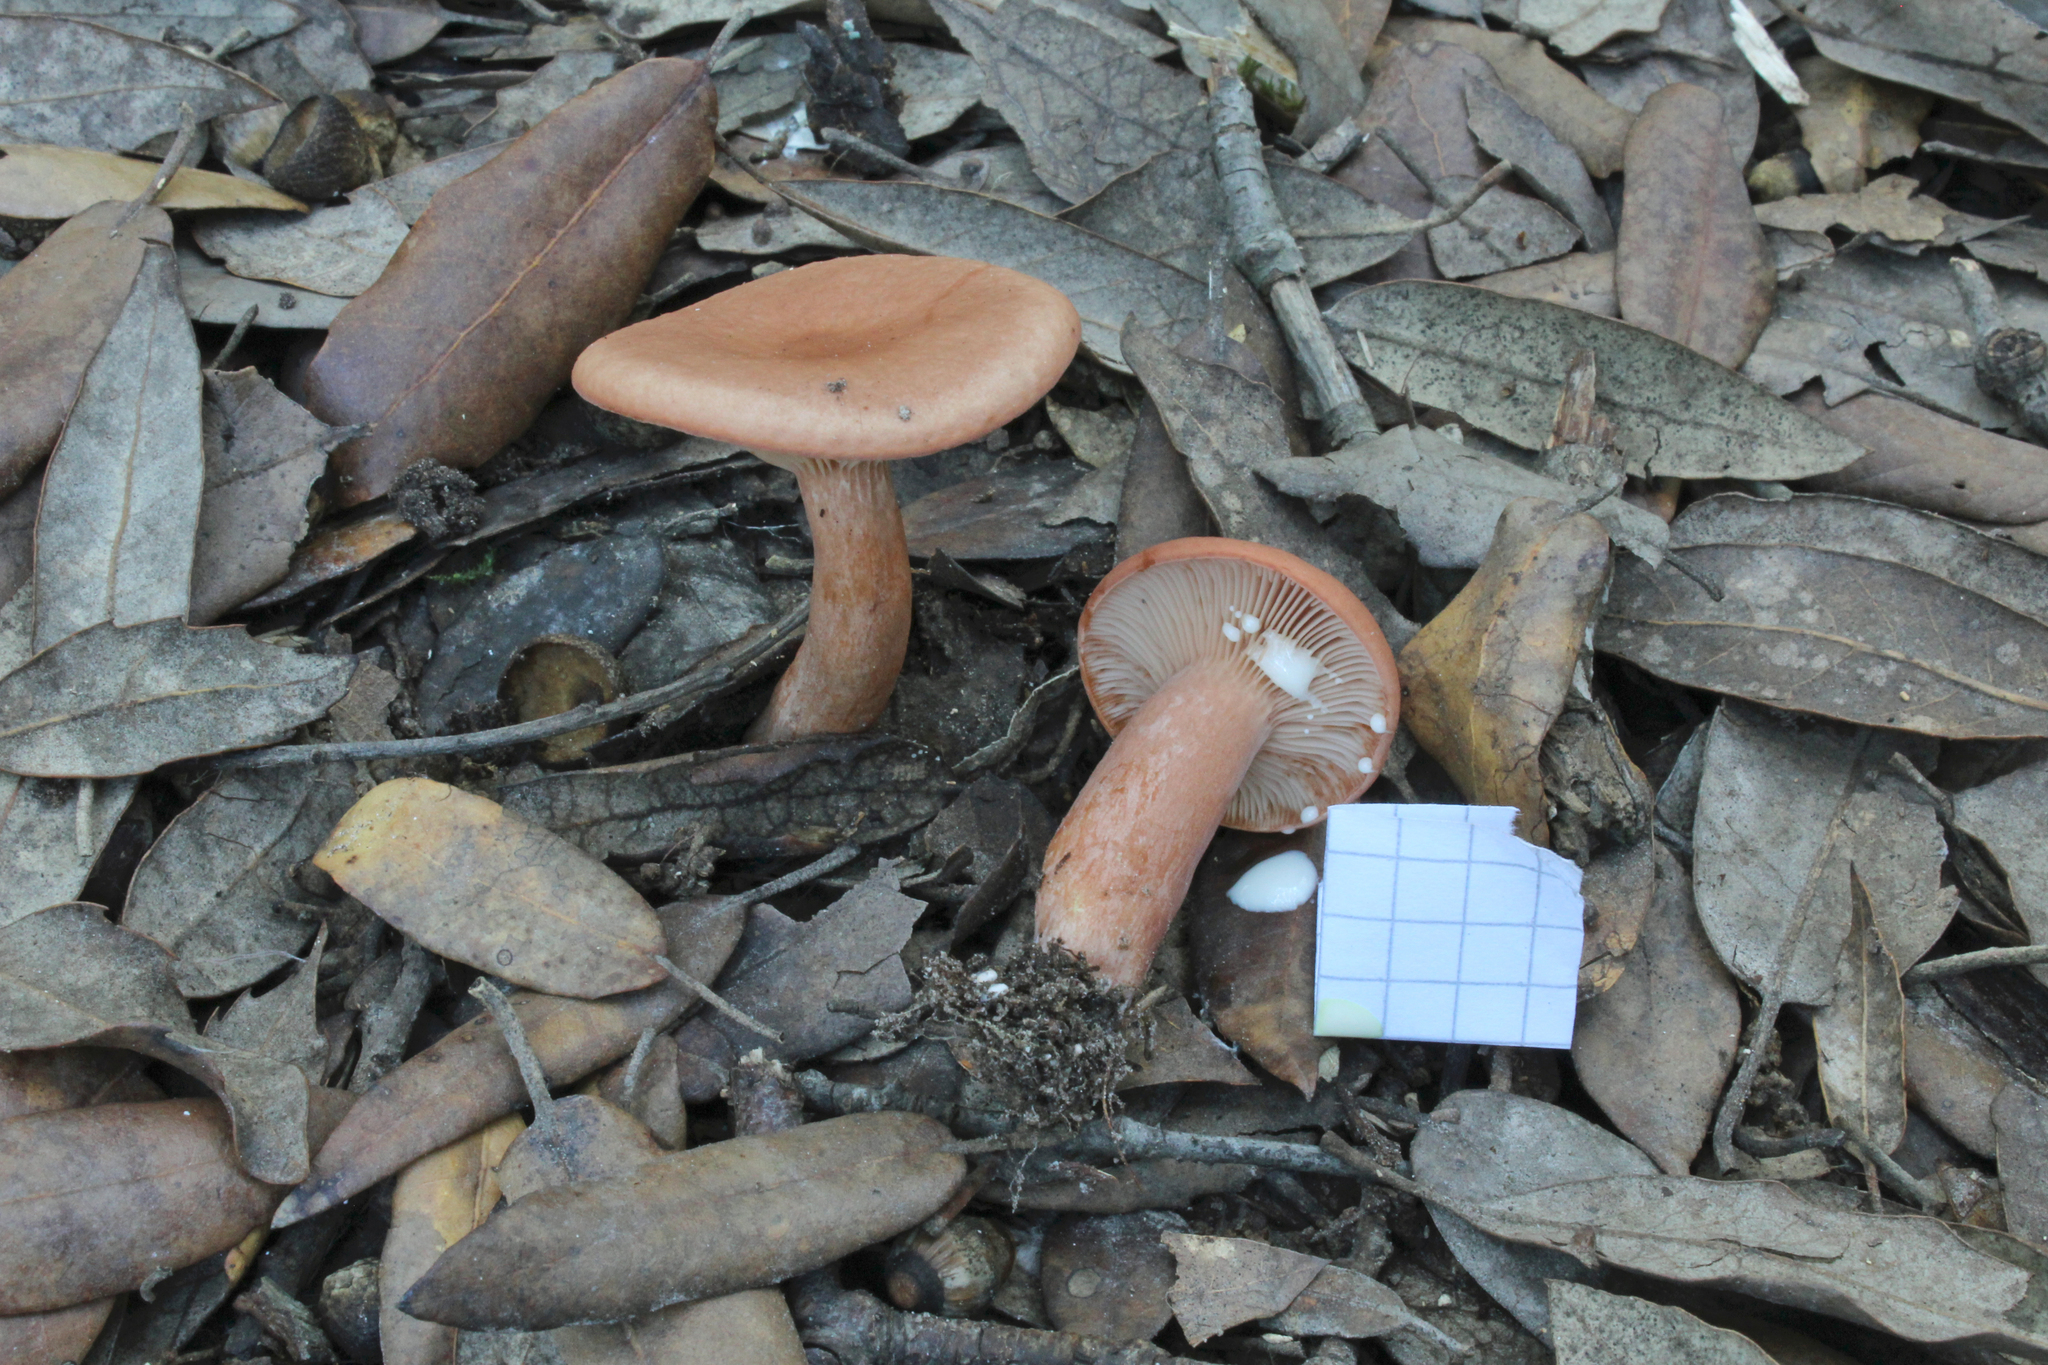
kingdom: Fungi
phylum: Basidiomycota
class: Agaricomycetes
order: Russulales
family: Russulaceae
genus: Lactarius
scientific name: Lactarius decipiens
